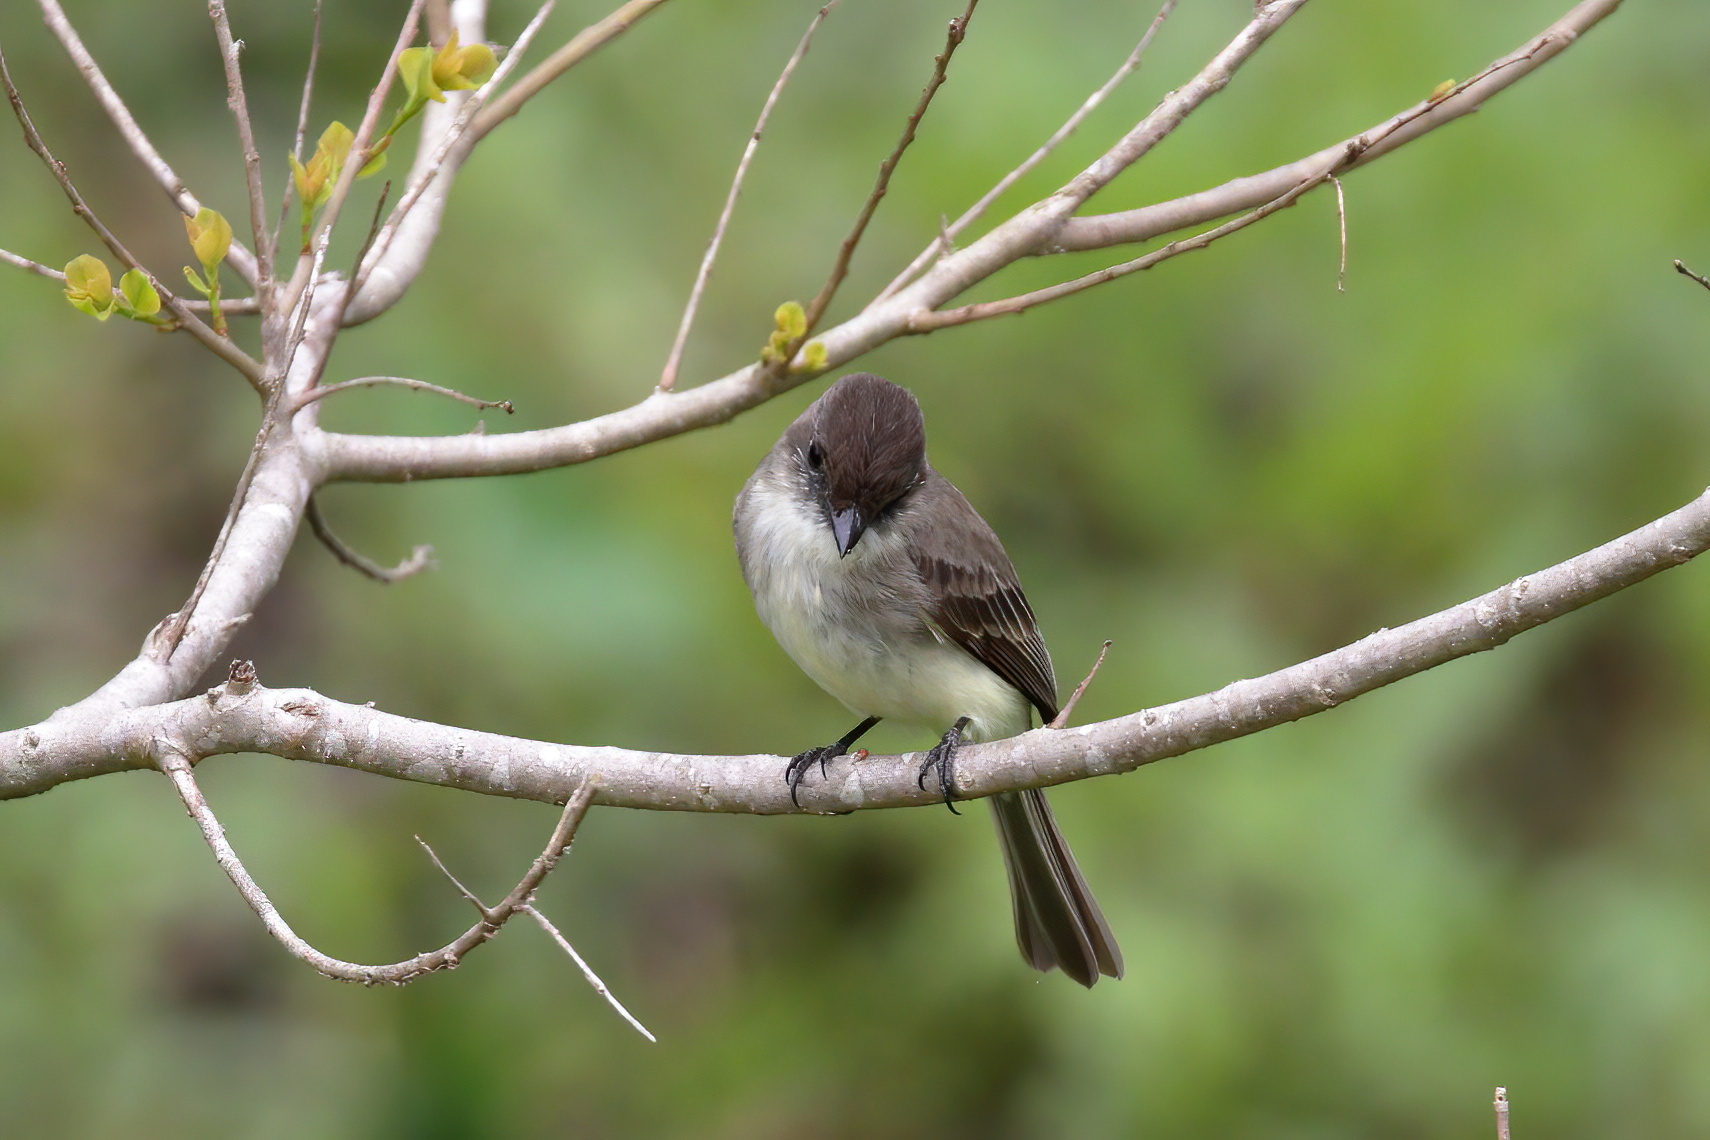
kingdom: Animalia
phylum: Chordata
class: Aves
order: Passeriformes
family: Tyrannidae
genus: Sayornis
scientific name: Sayornis phoebe
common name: Eastern phoebe
